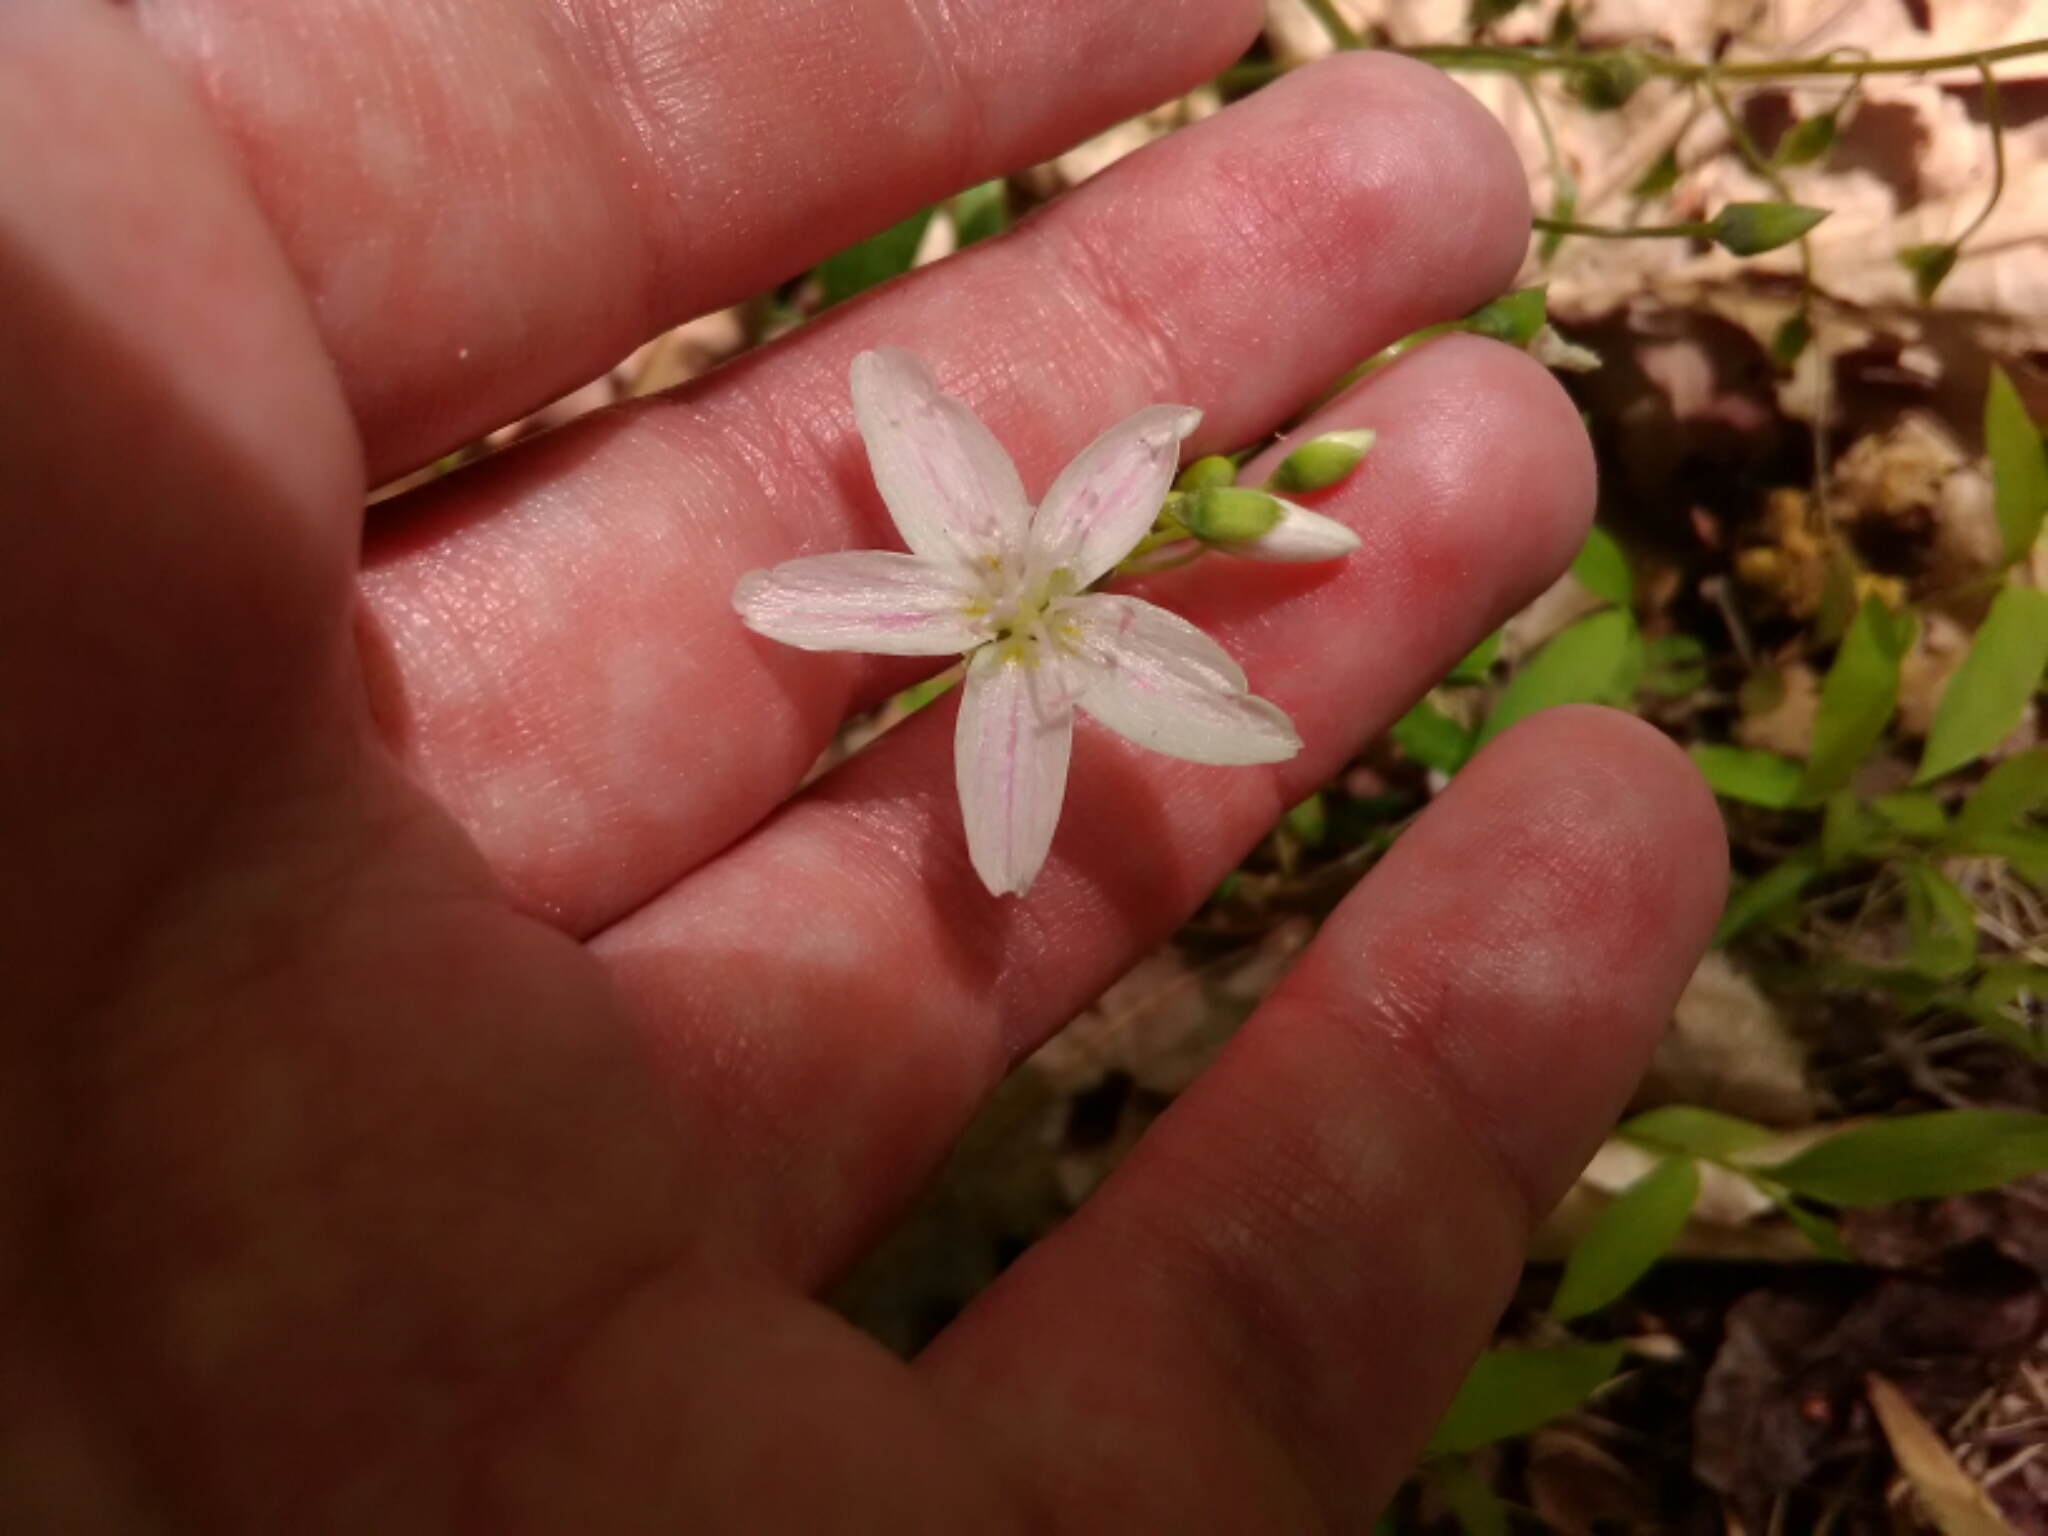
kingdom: Plantae
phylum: Tracheophyta
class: Magnoliopsida
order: Caryophyllales
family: Montiaceae
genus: Claytonia
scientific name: Claytonia virginica
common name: Virginia springbeauty
